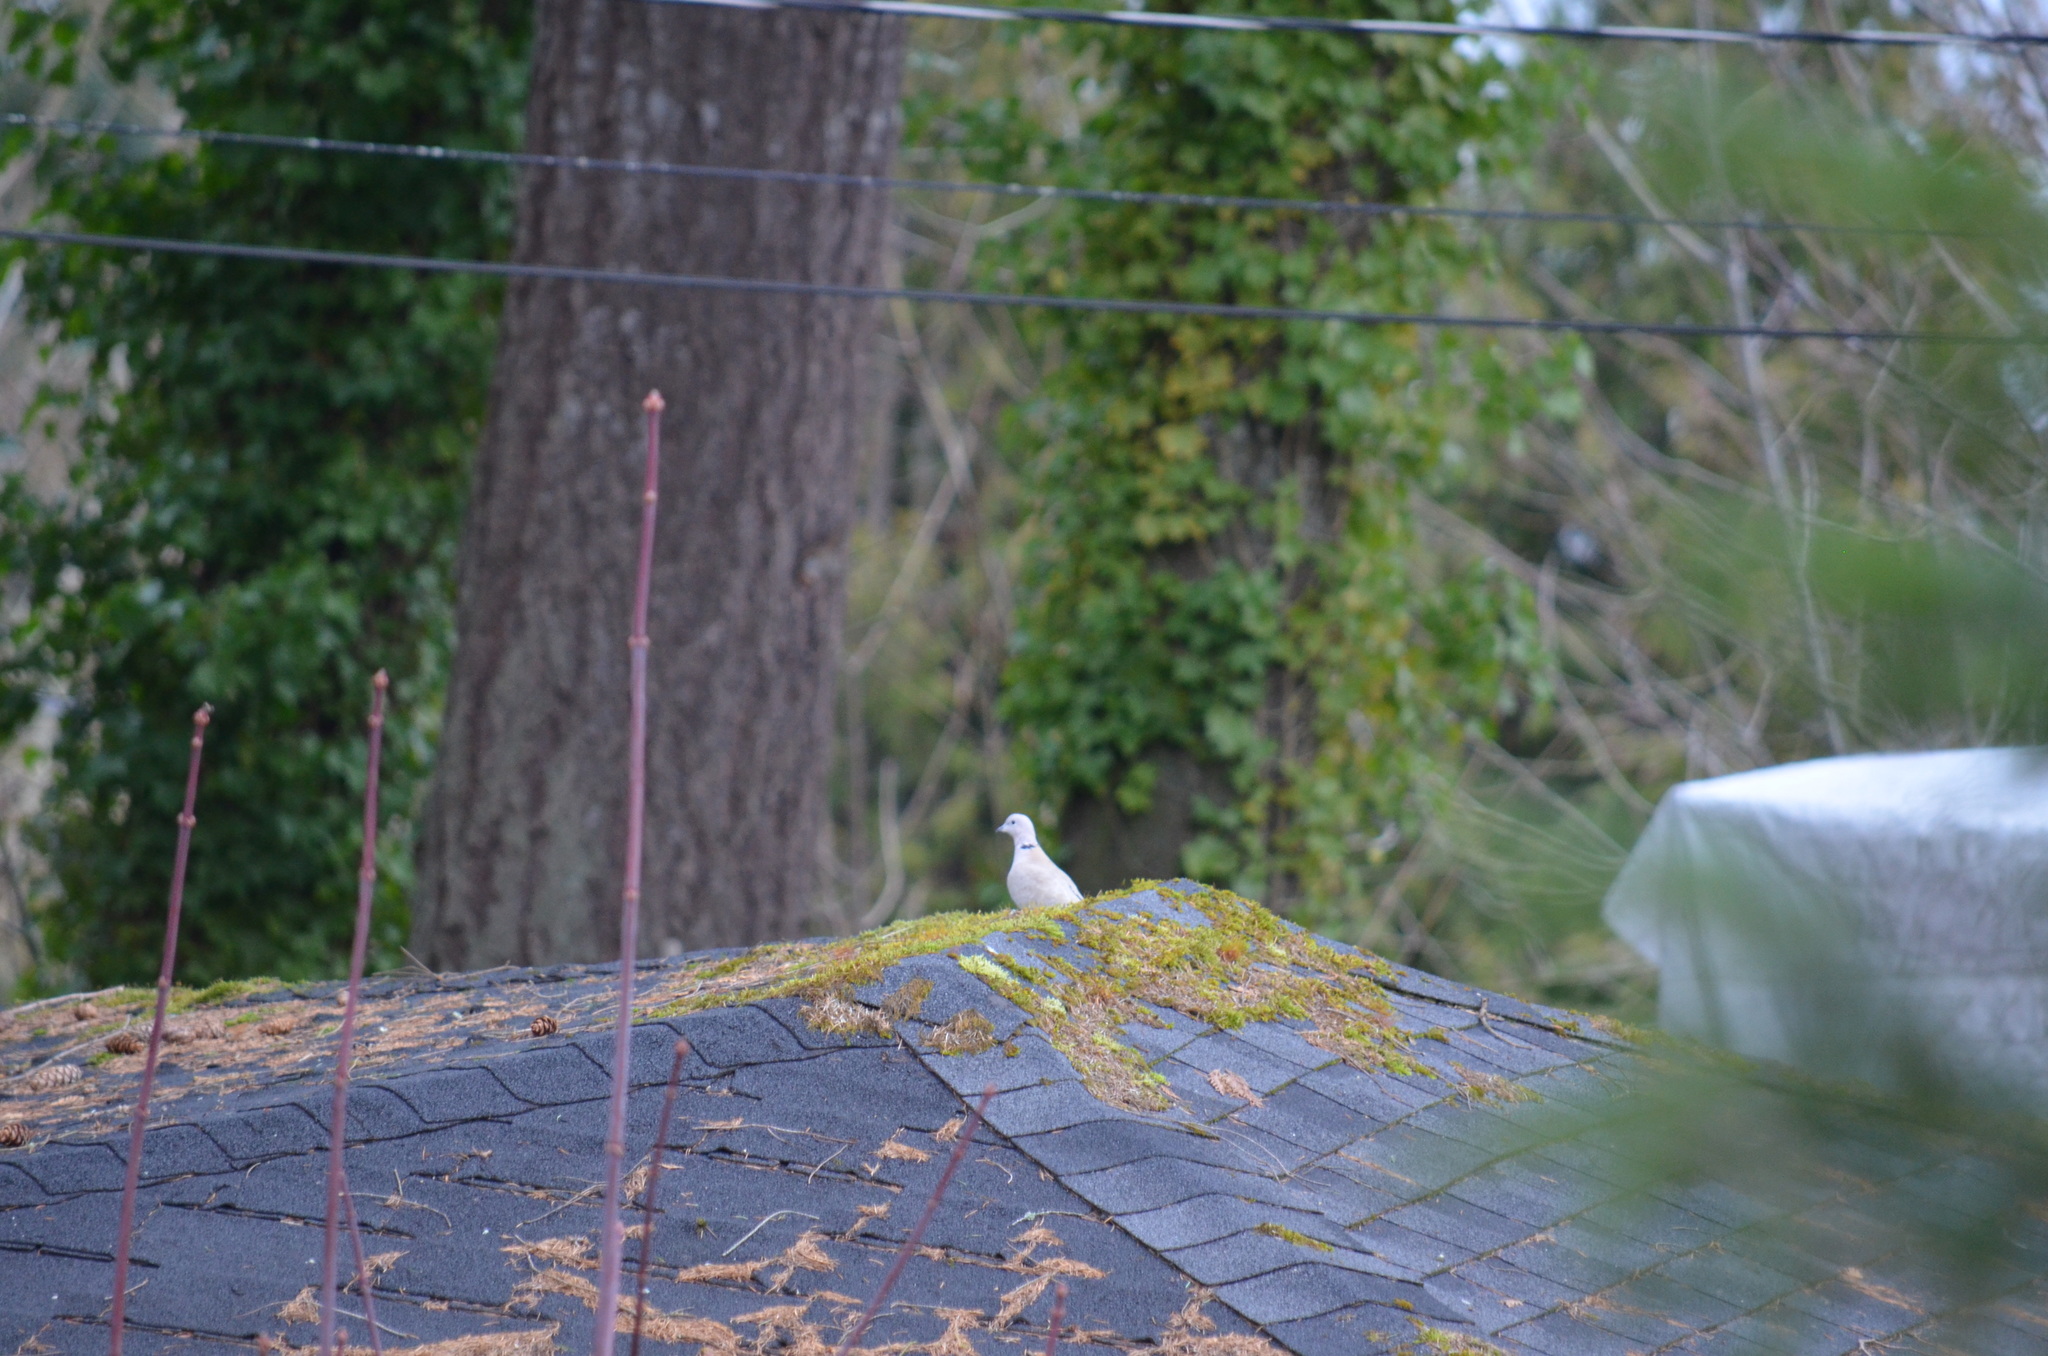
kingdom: Animalia
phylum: Chordata
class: Aves
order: Columbiformes
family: Columbidae
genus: Streptopelia
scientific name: Streptopelia decaocto
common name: Eurasian collared dove
